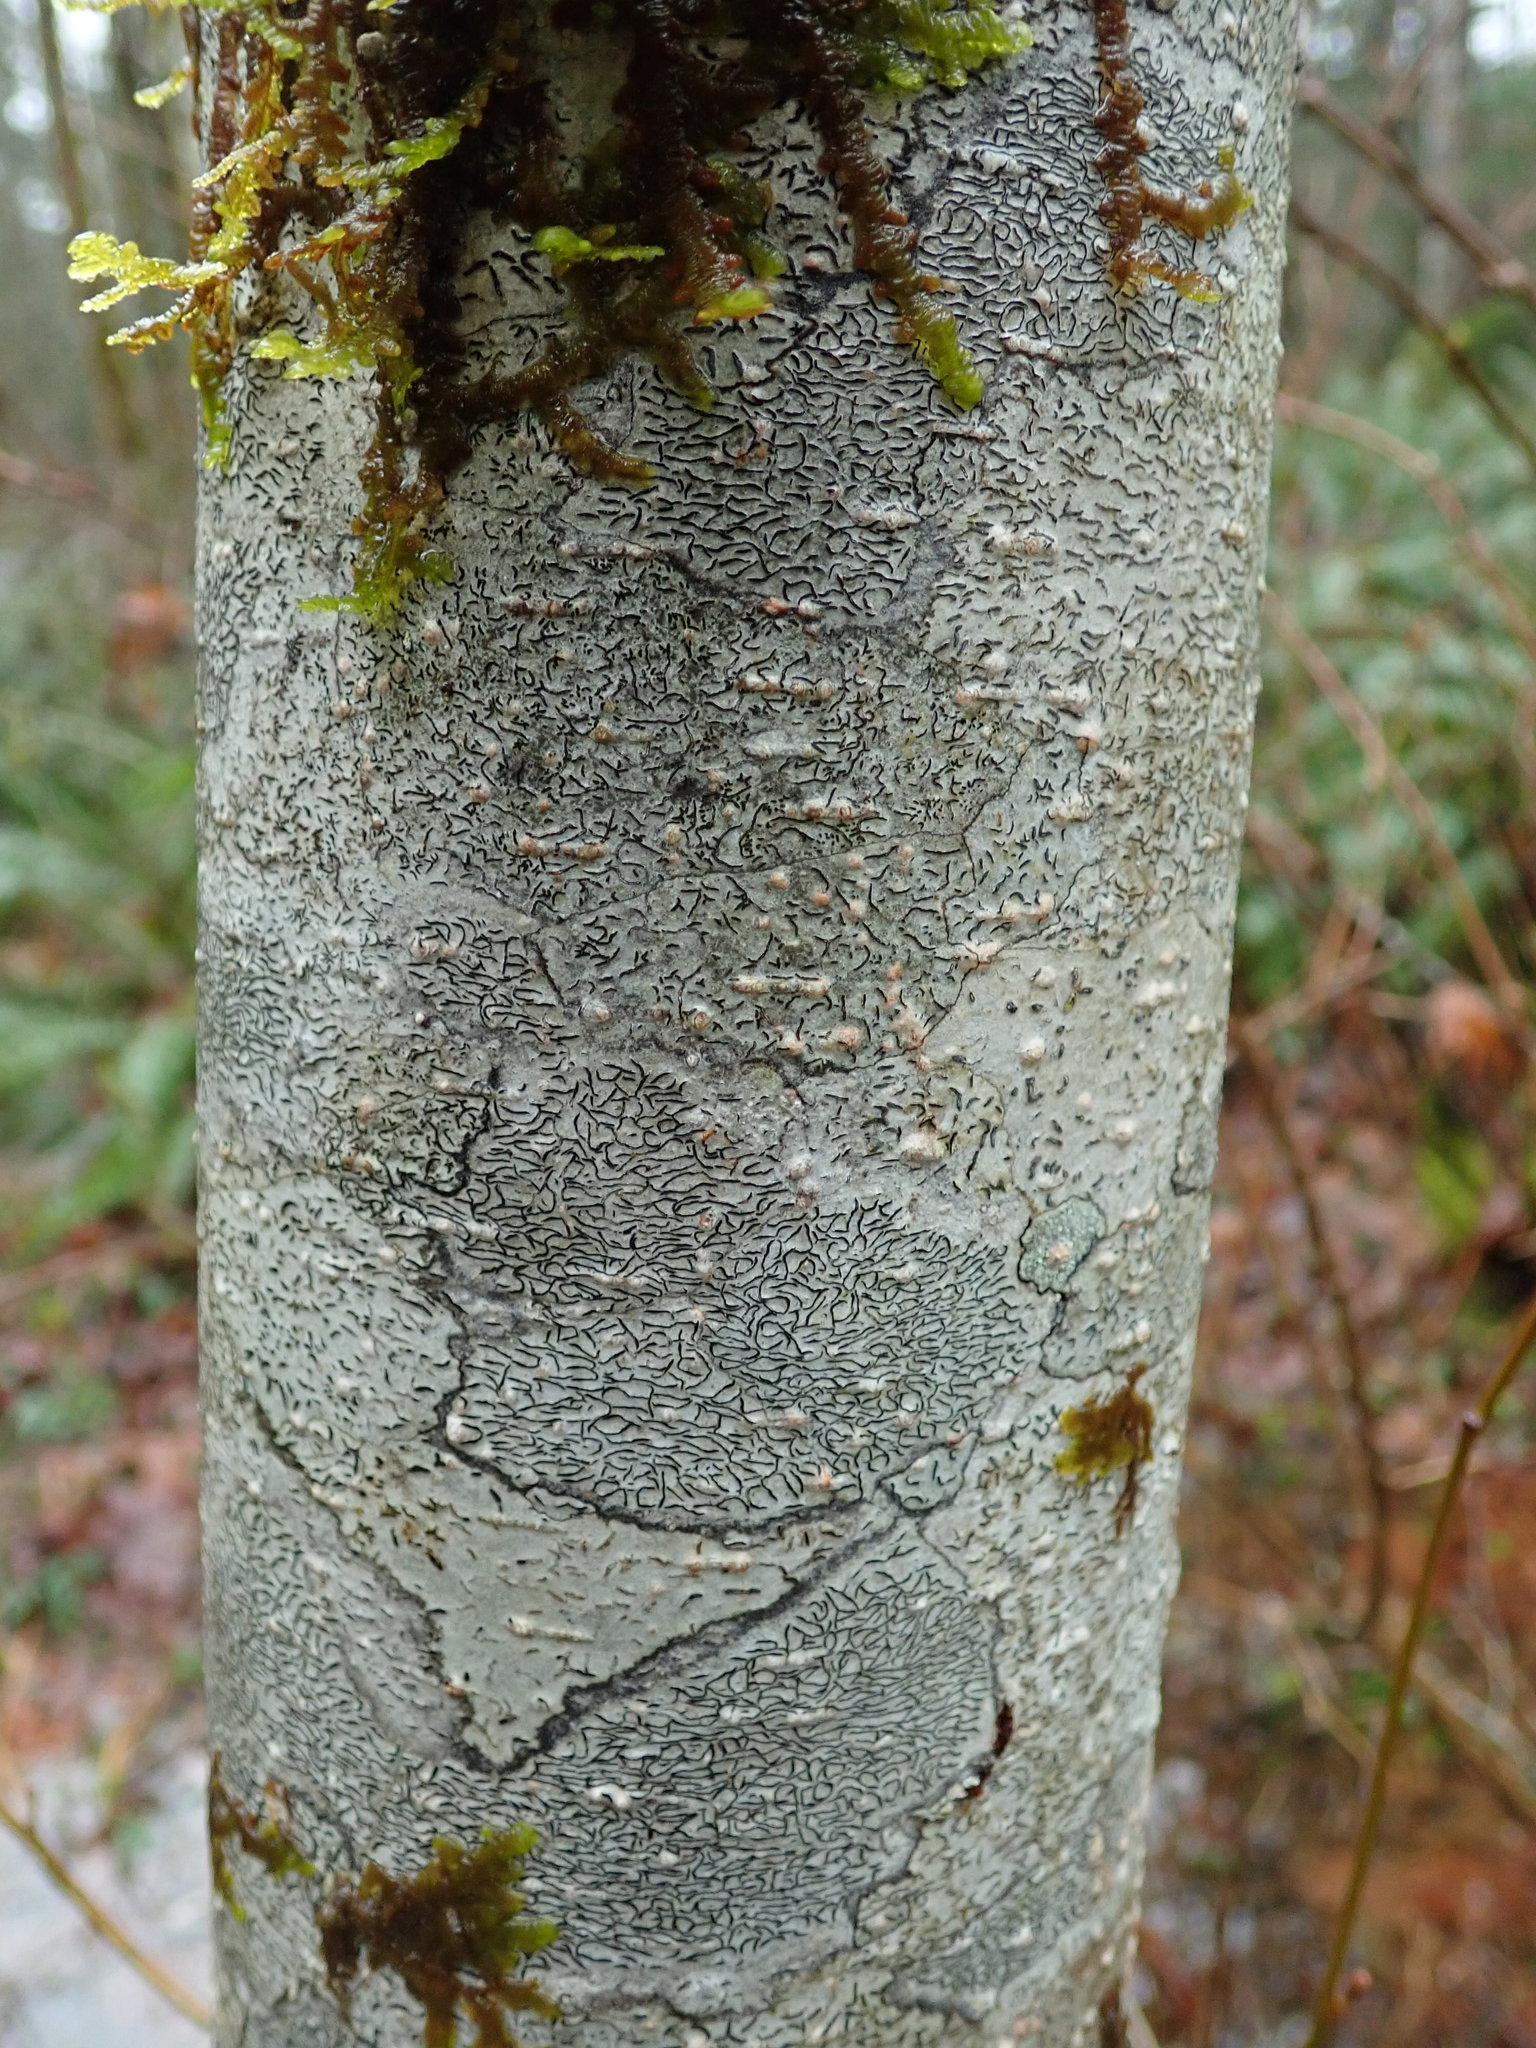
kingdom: Fungi
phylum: Ascomycota
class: Lecanoromycetes
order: Ostropales
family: Graphidaceae
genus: Graphis
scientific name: Graphis scripta
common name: Script lichen
